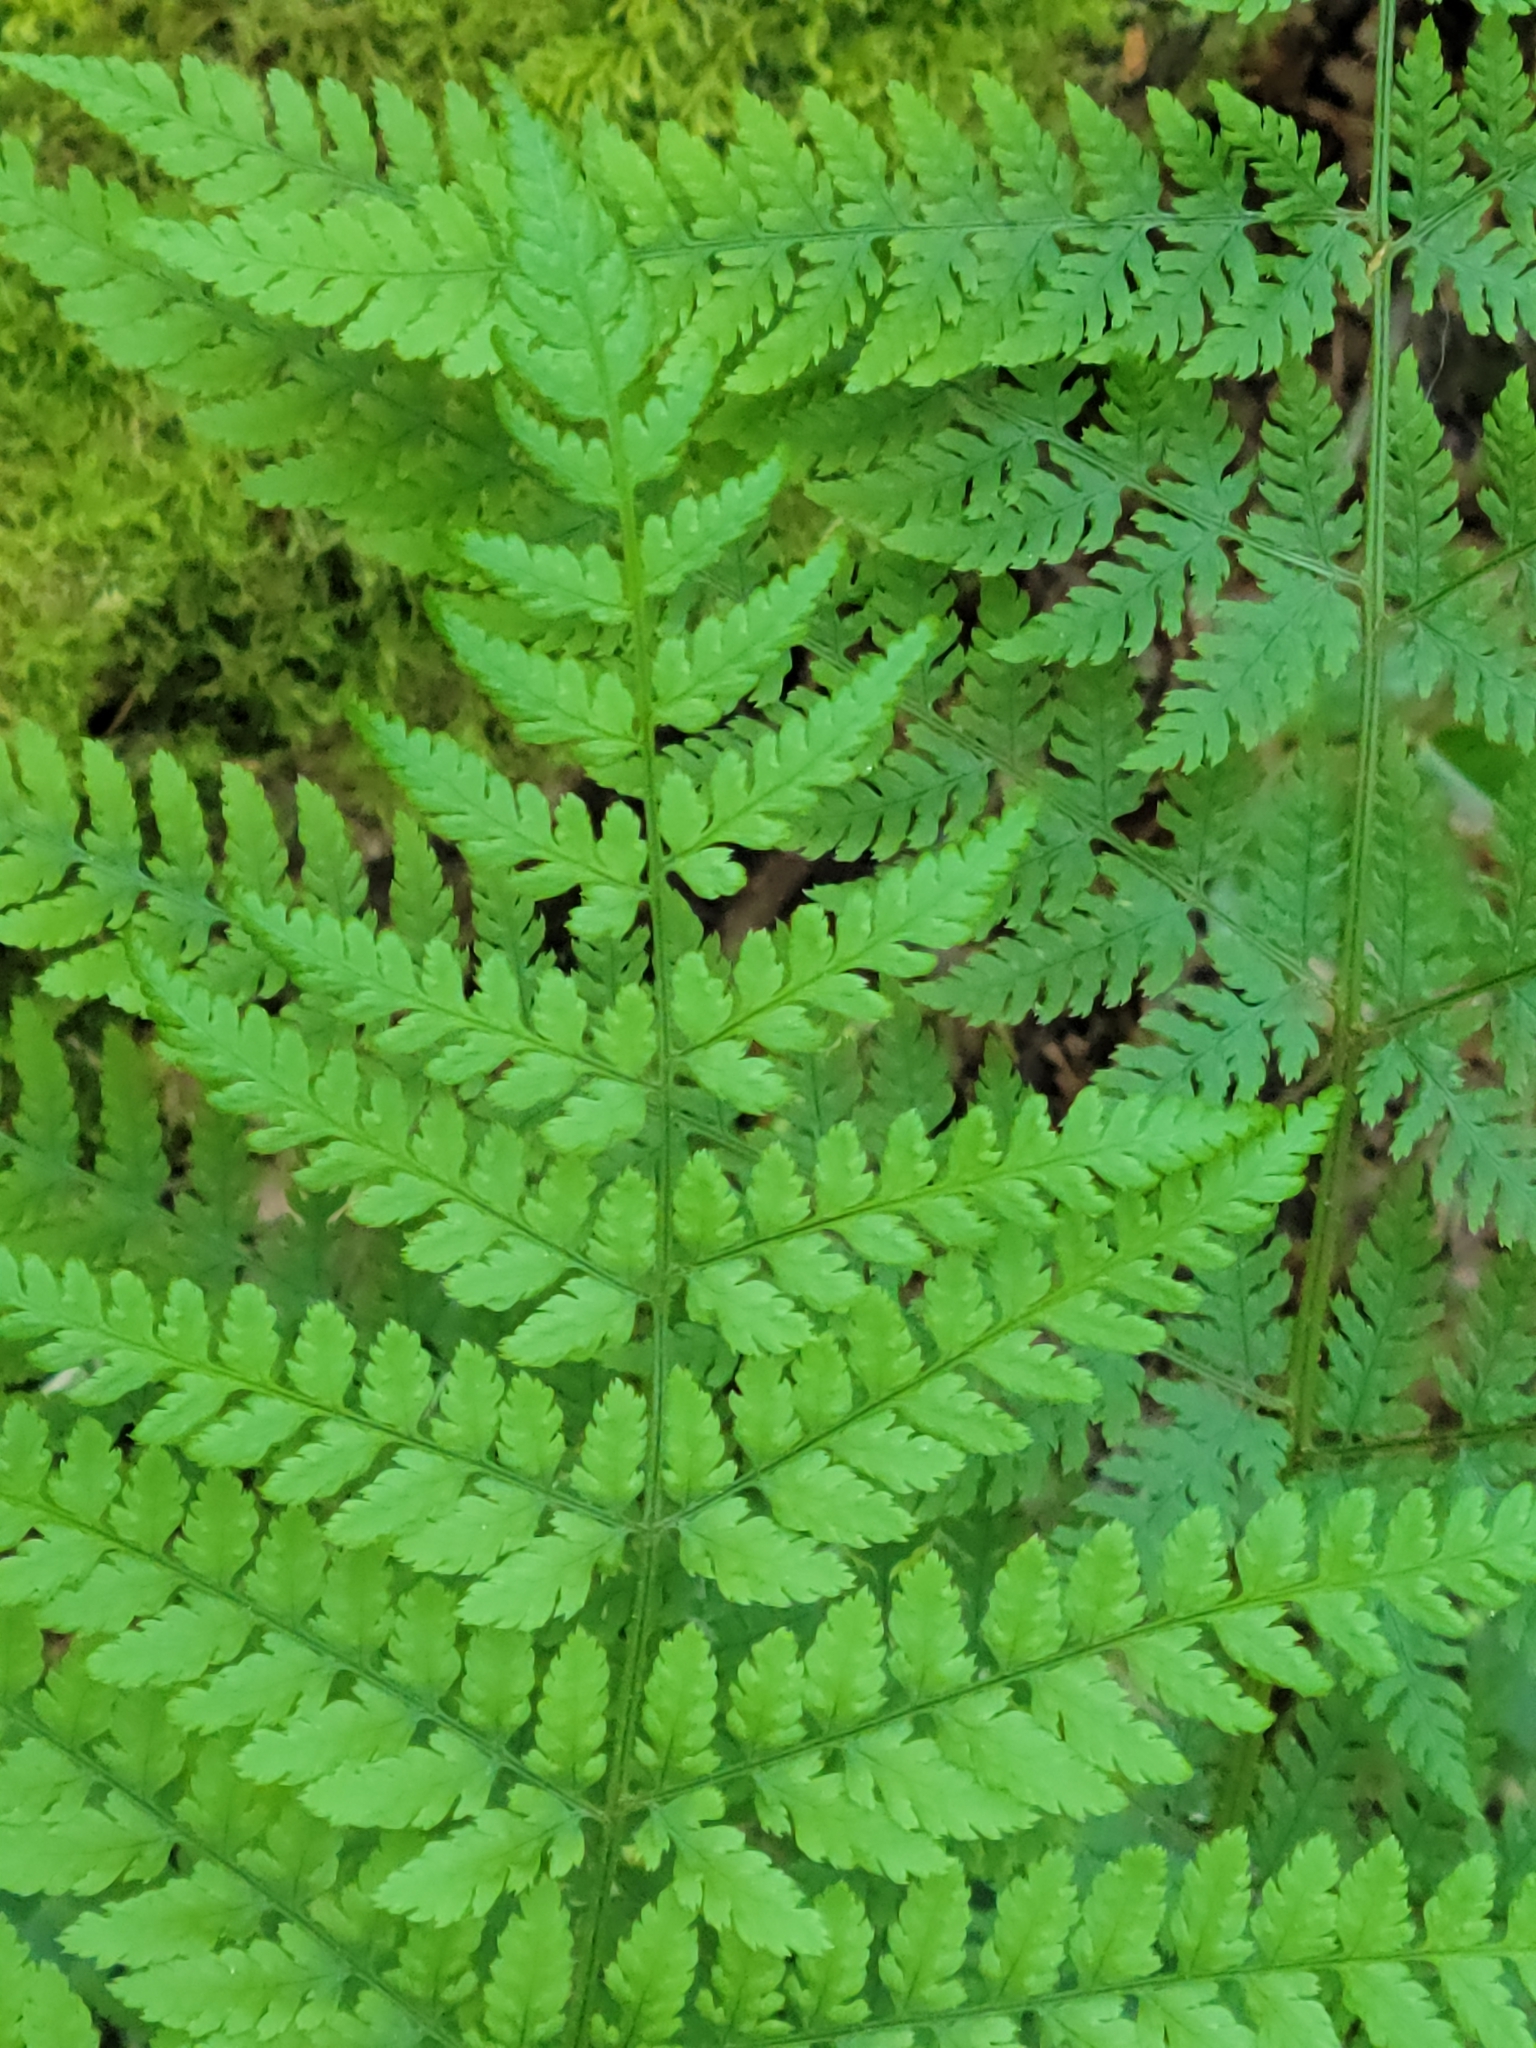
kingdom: Plantae
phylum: Tracheophyta
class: Polypodiopsida
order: Polypodiales
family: Dryopteridaceae
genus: Dryopteris
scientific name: Dryopteris expansa
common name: Northern buckler fern
